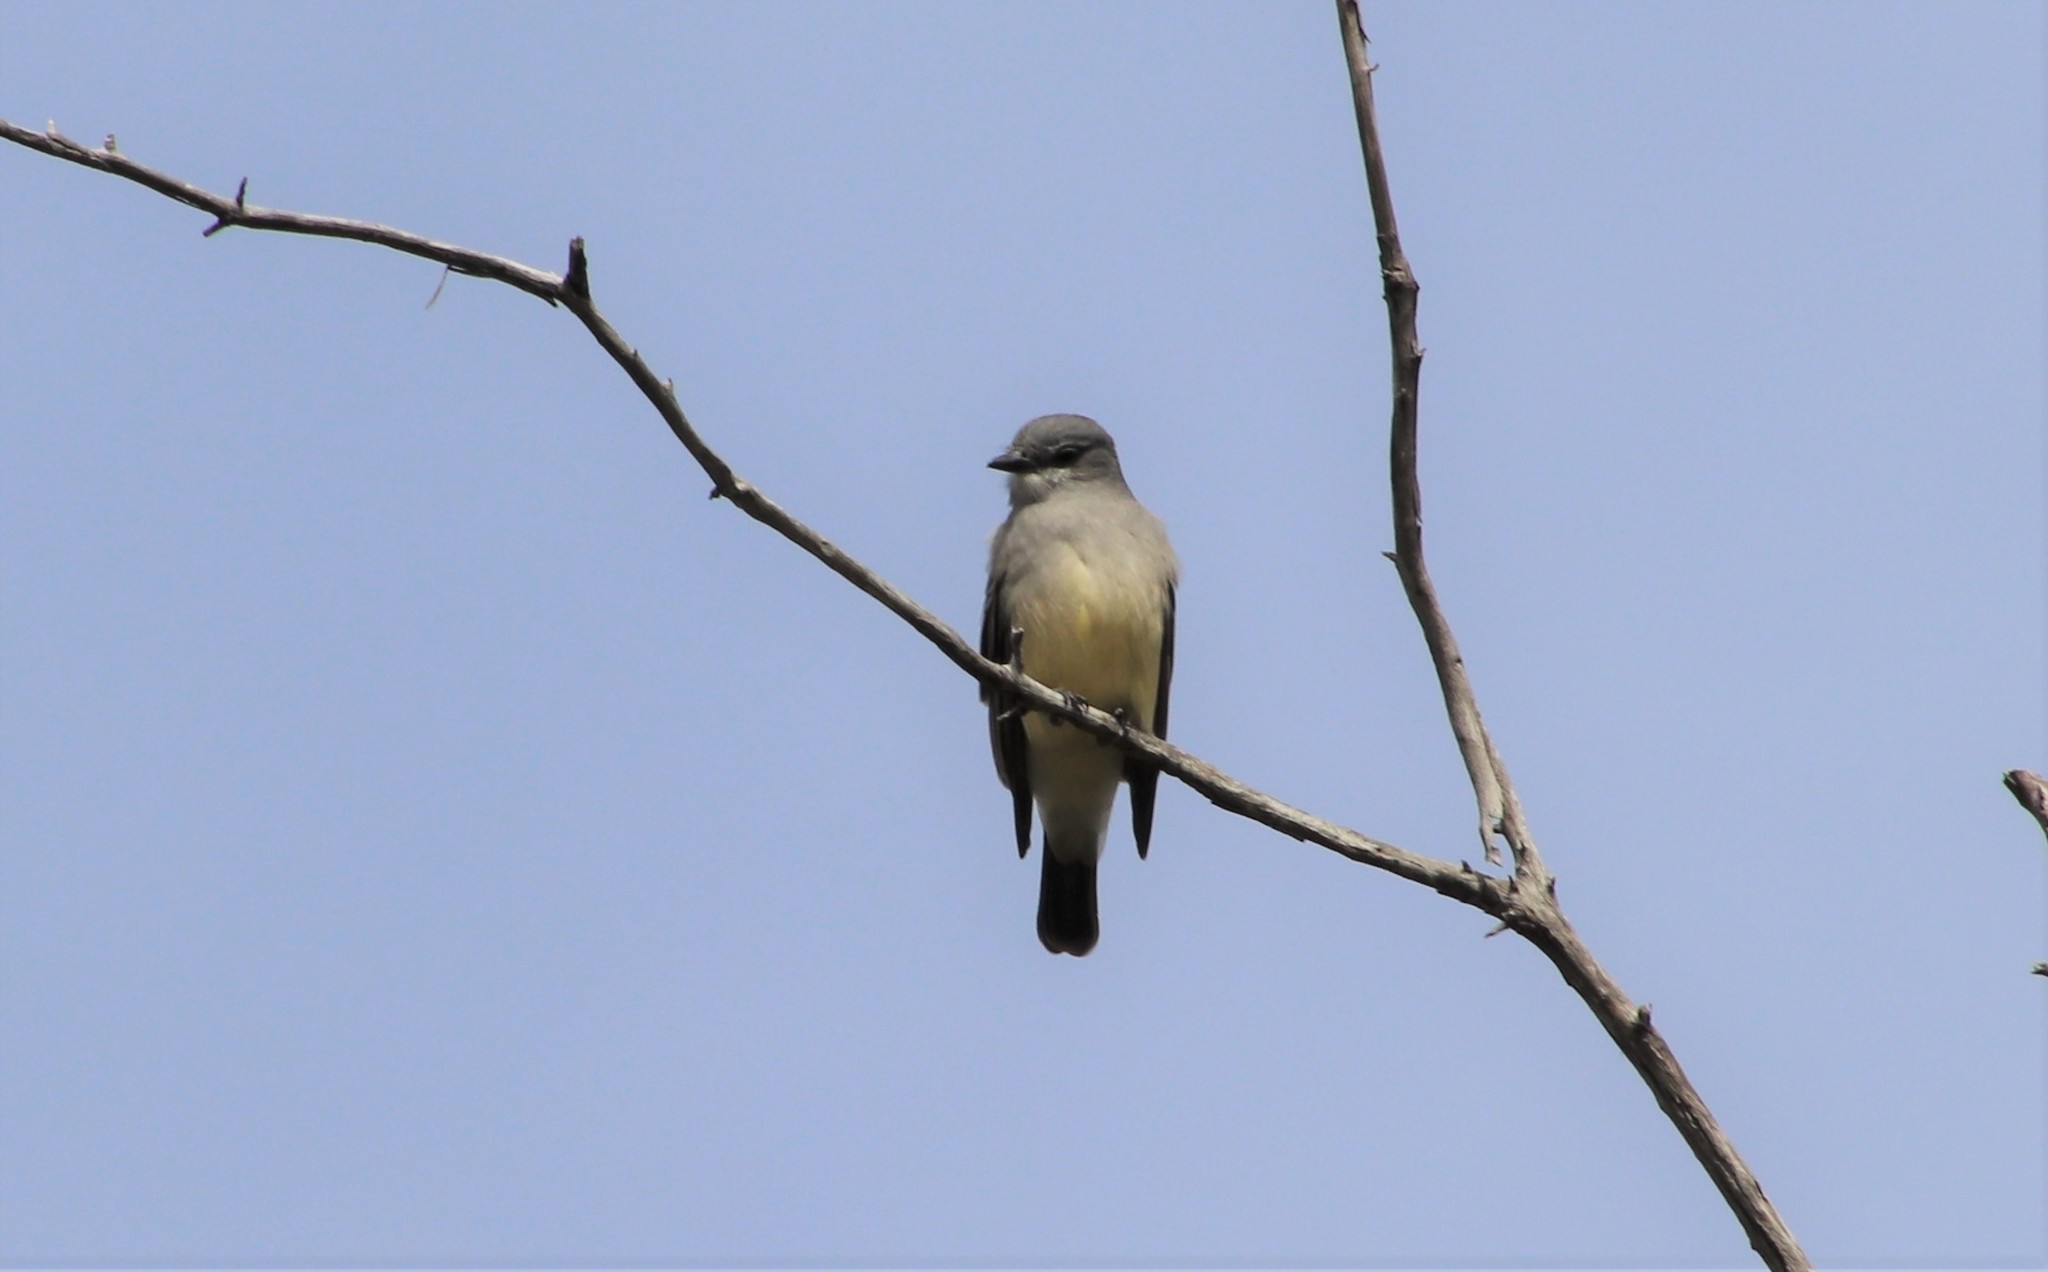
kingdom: Animalia
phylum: Chordata
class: Aves
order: Passeriformes
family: Tyrannidae
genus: Tyrannus
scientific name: Tyrannus vociferans
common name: Cassin's kingbird
